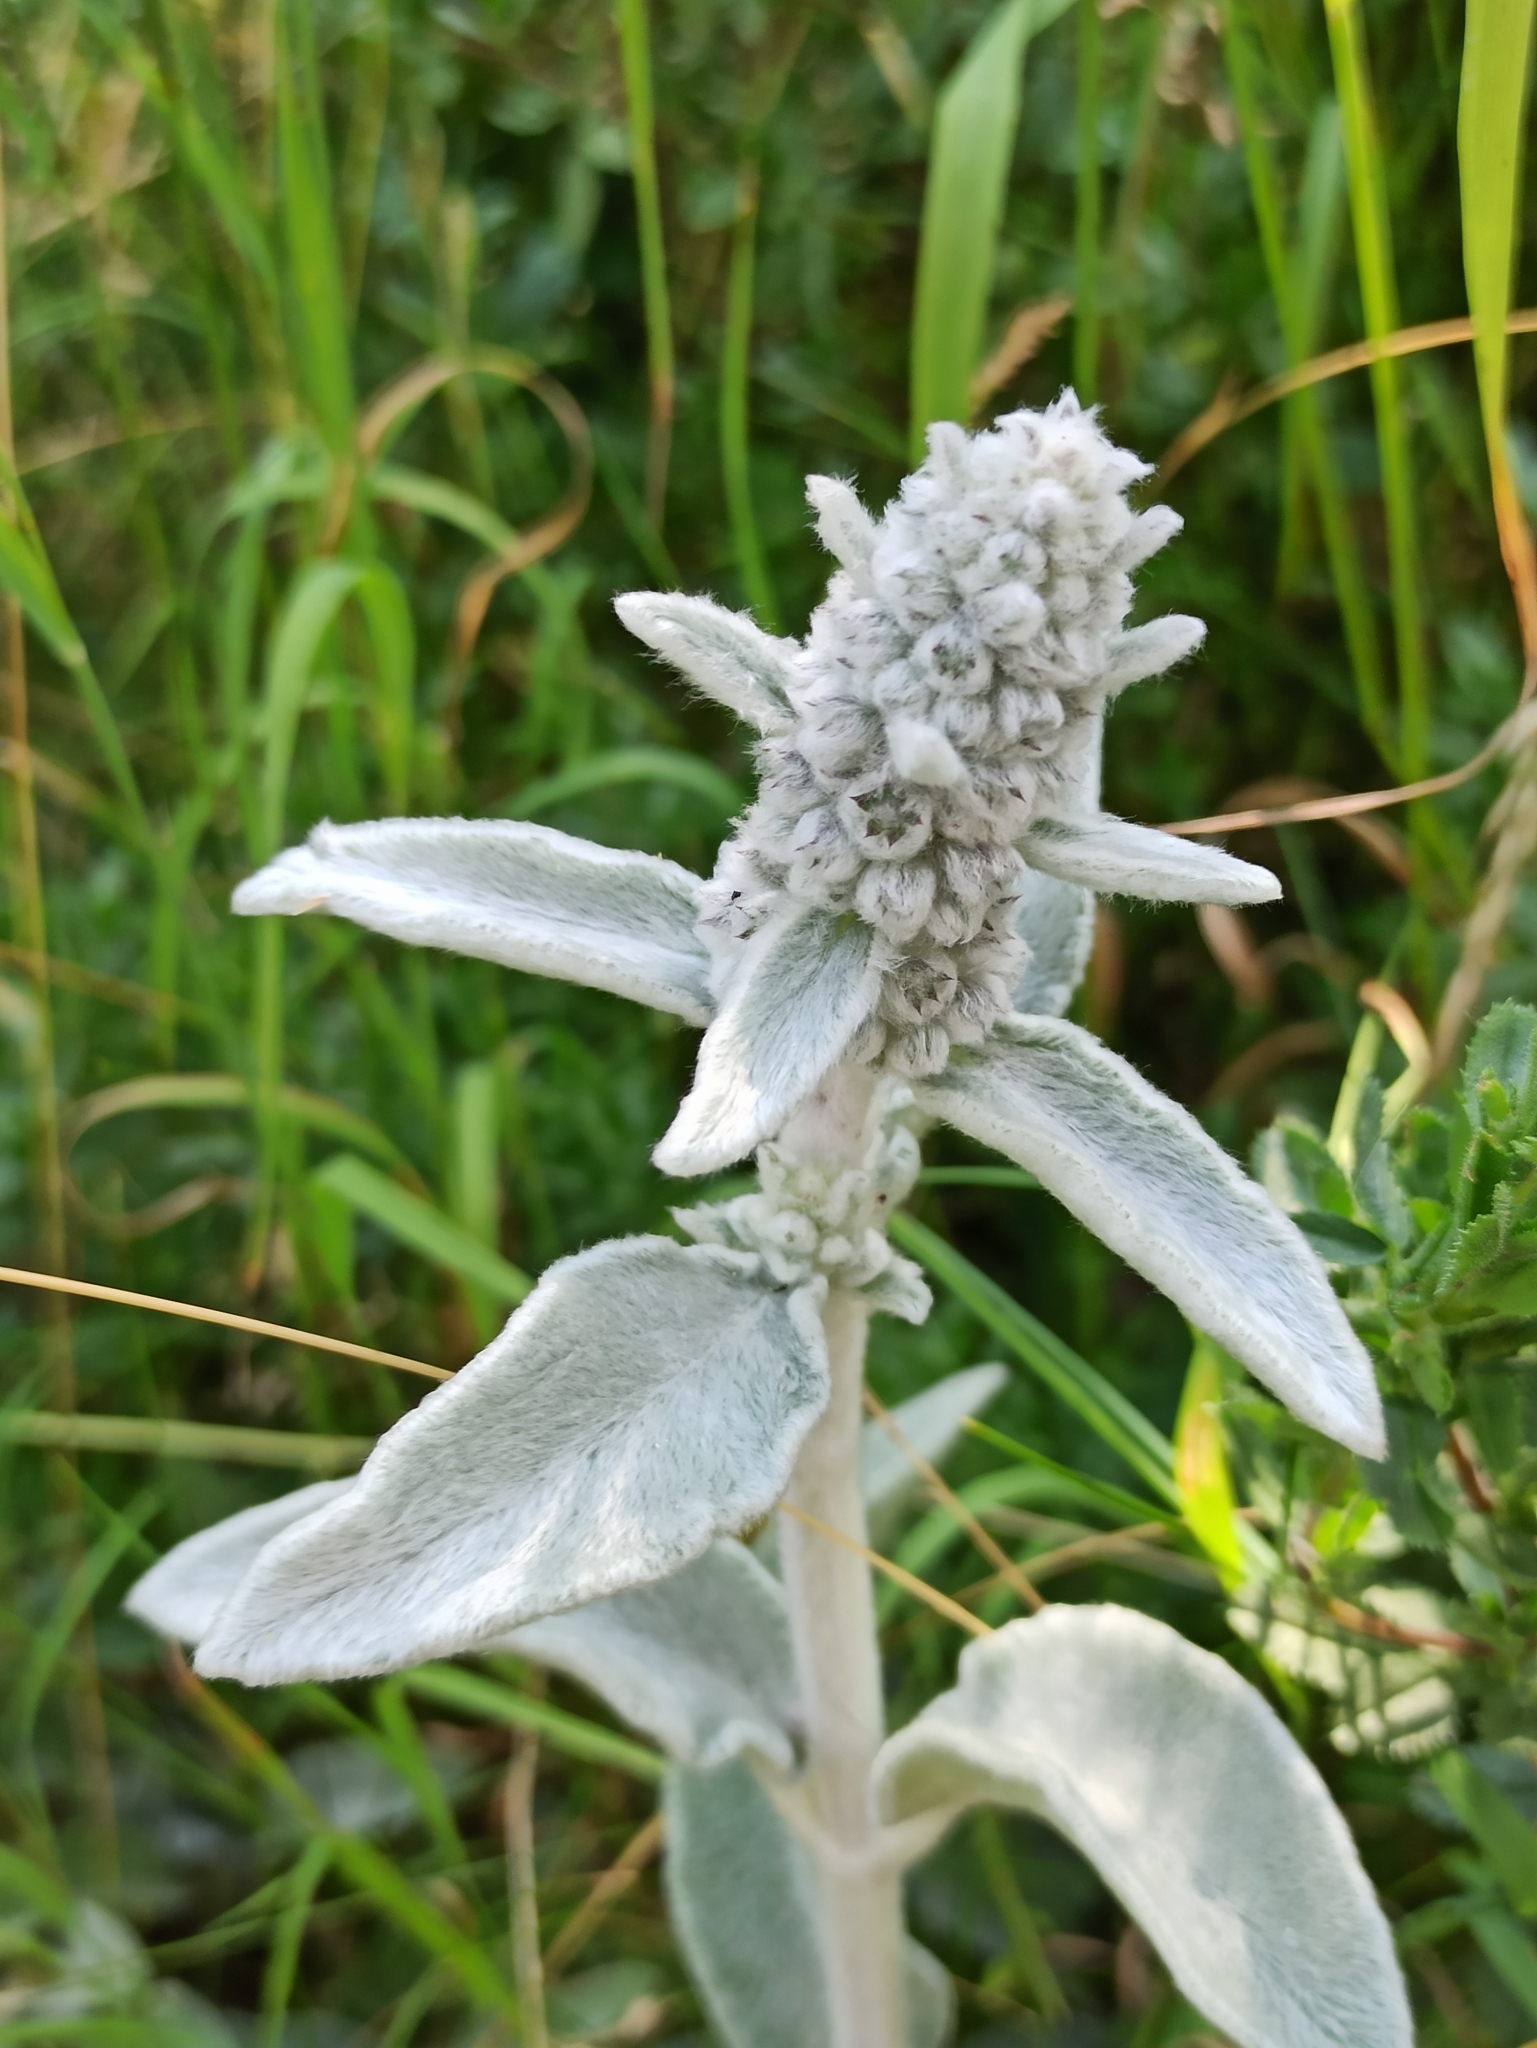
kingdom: Plantae
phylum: Tracheophyta
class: Magnoliopsida
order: Lamiales
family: Lamiaceae
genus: Stachys
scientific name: Stachys byzantina
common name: Lamb's-ear
